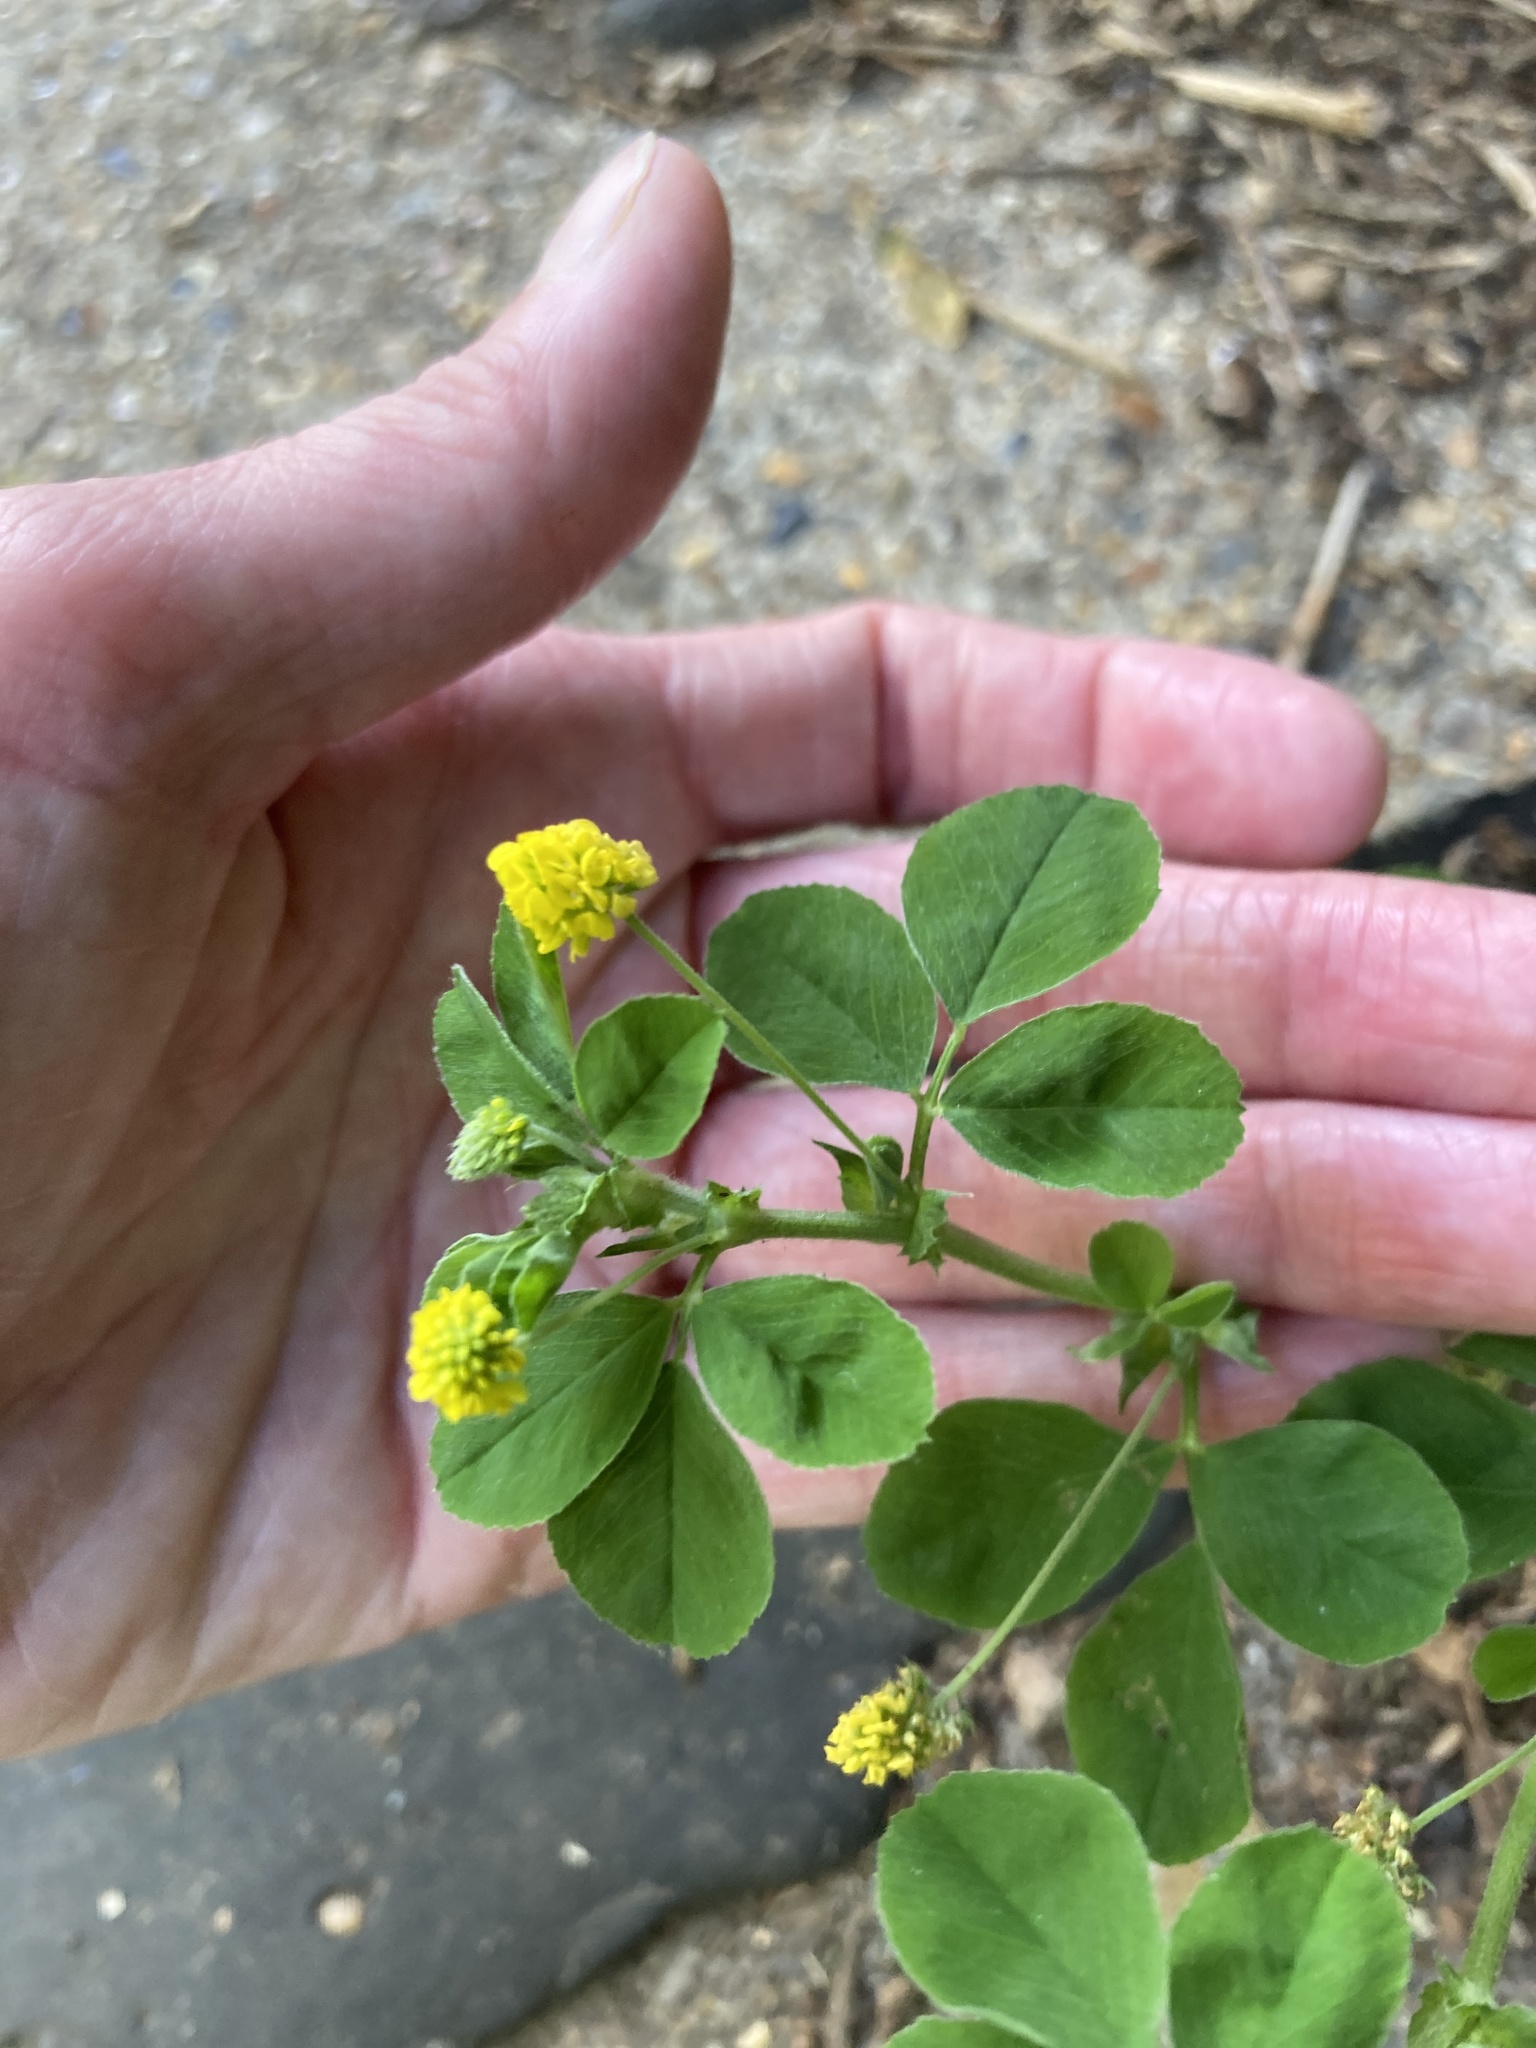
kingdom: Plantae
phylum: Tracheophyta
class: Magnoliopsida
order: Fabales
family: Fabaceae
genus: Medicago
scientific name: Medicago lupulina
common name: Black medick
